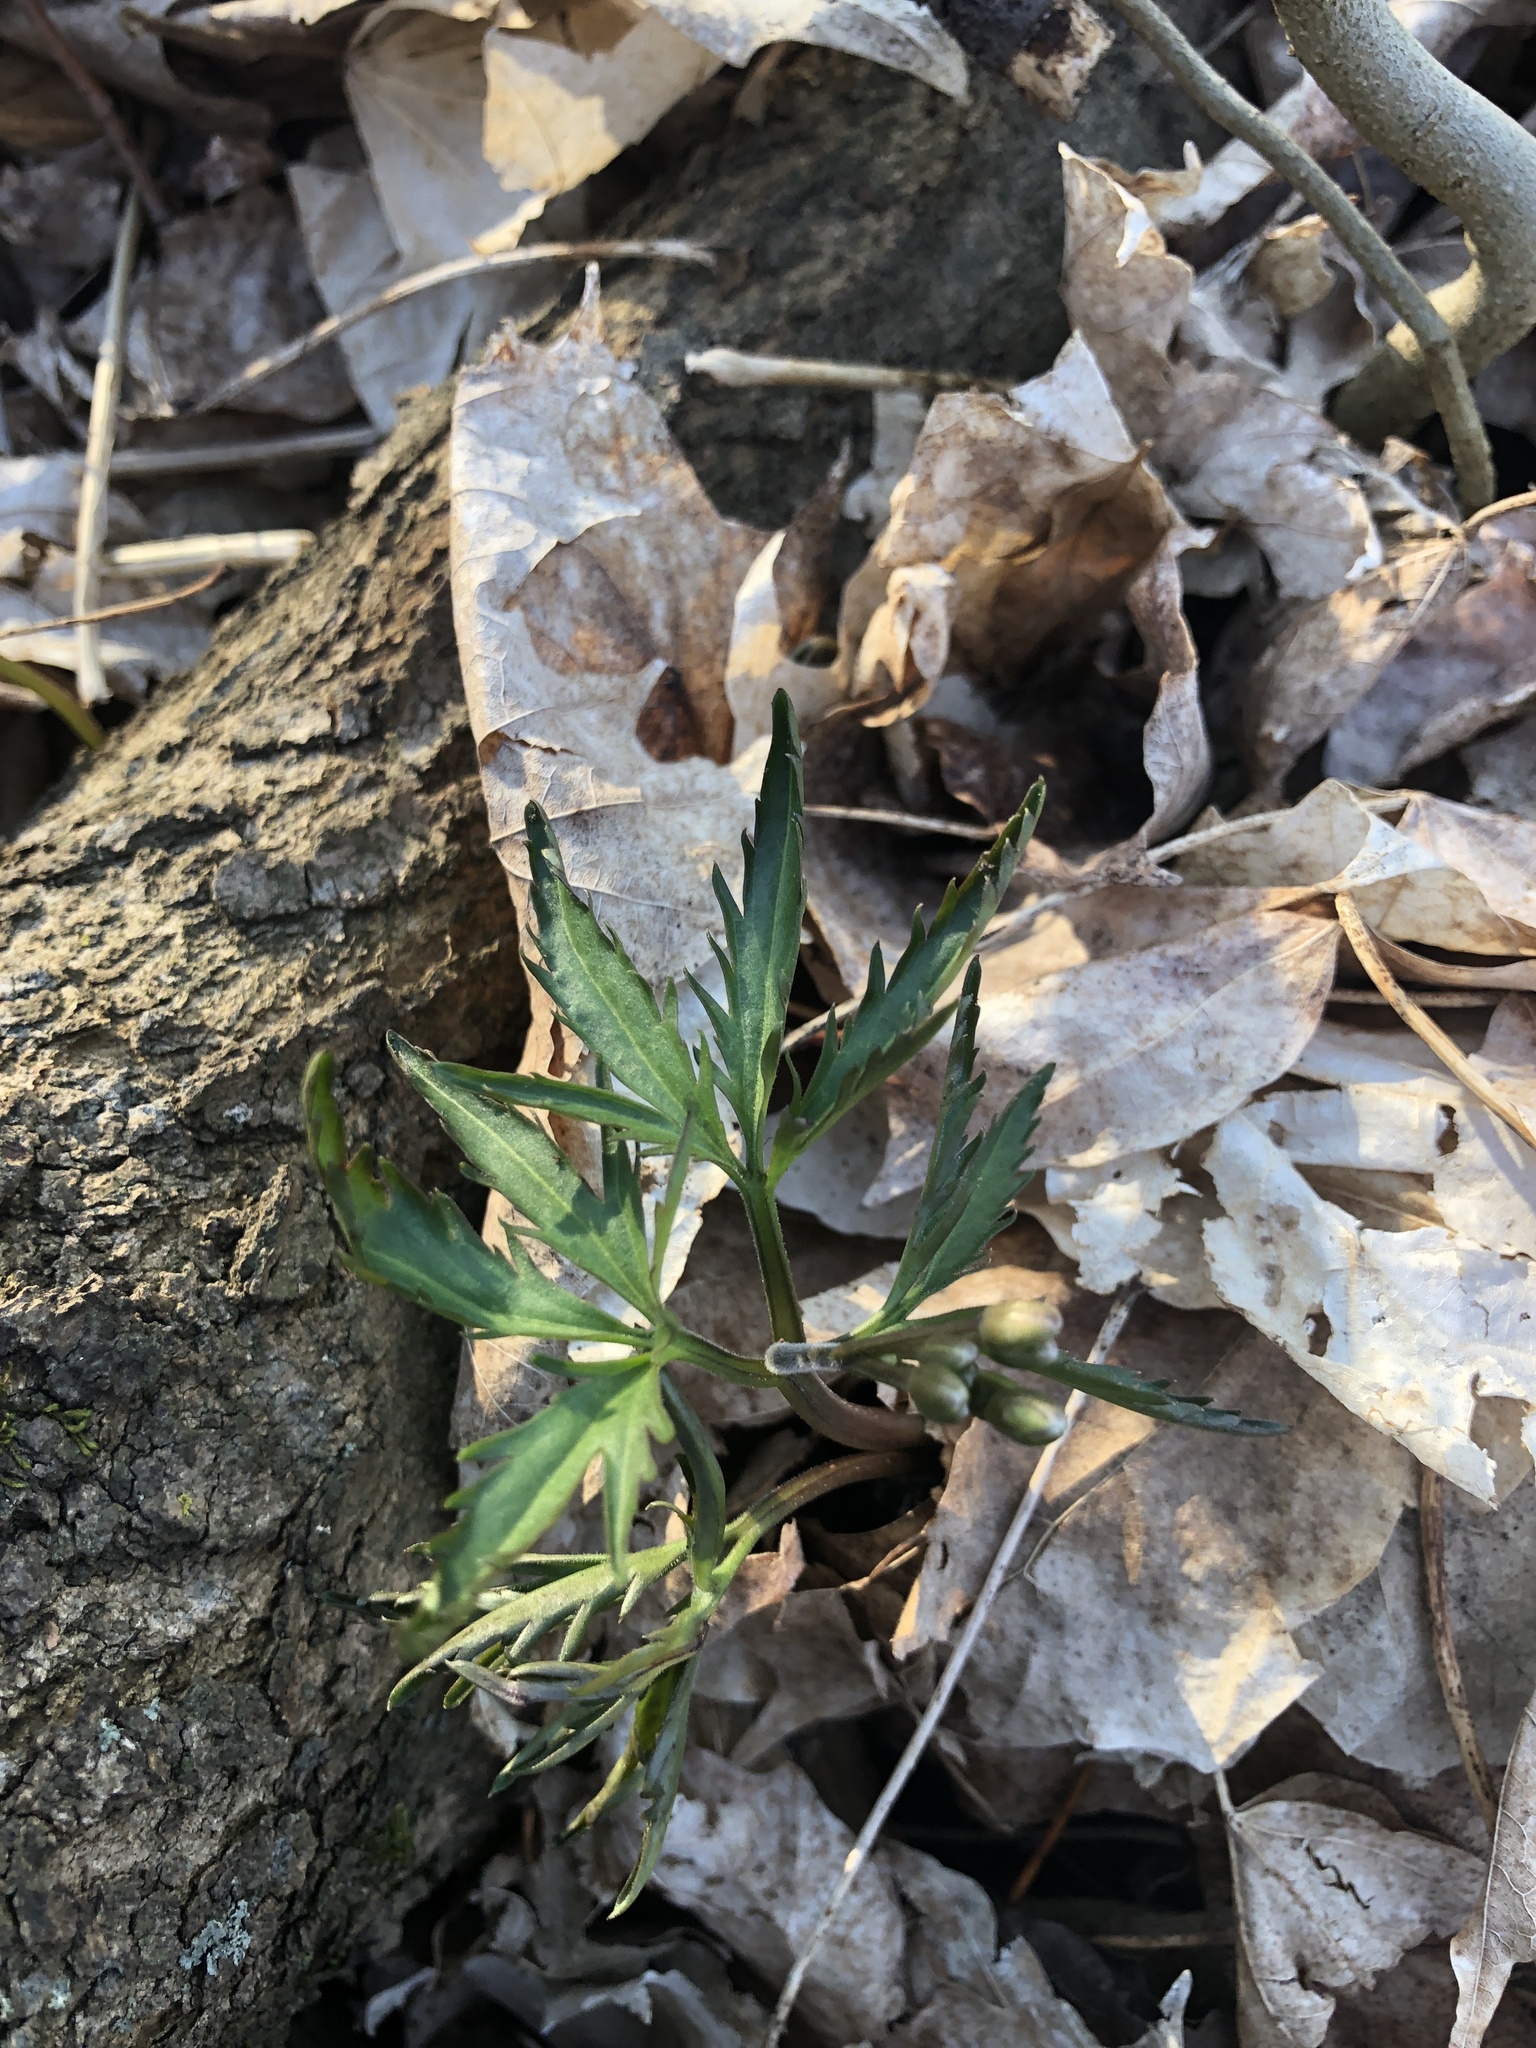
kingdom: Plantae
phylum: Tracheophyta
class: Magnoliopsida
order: Brassicales
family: Brassicaceae
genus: Cardamine
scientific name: Cardamine concatenata
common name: Cut-leaf toothcup
